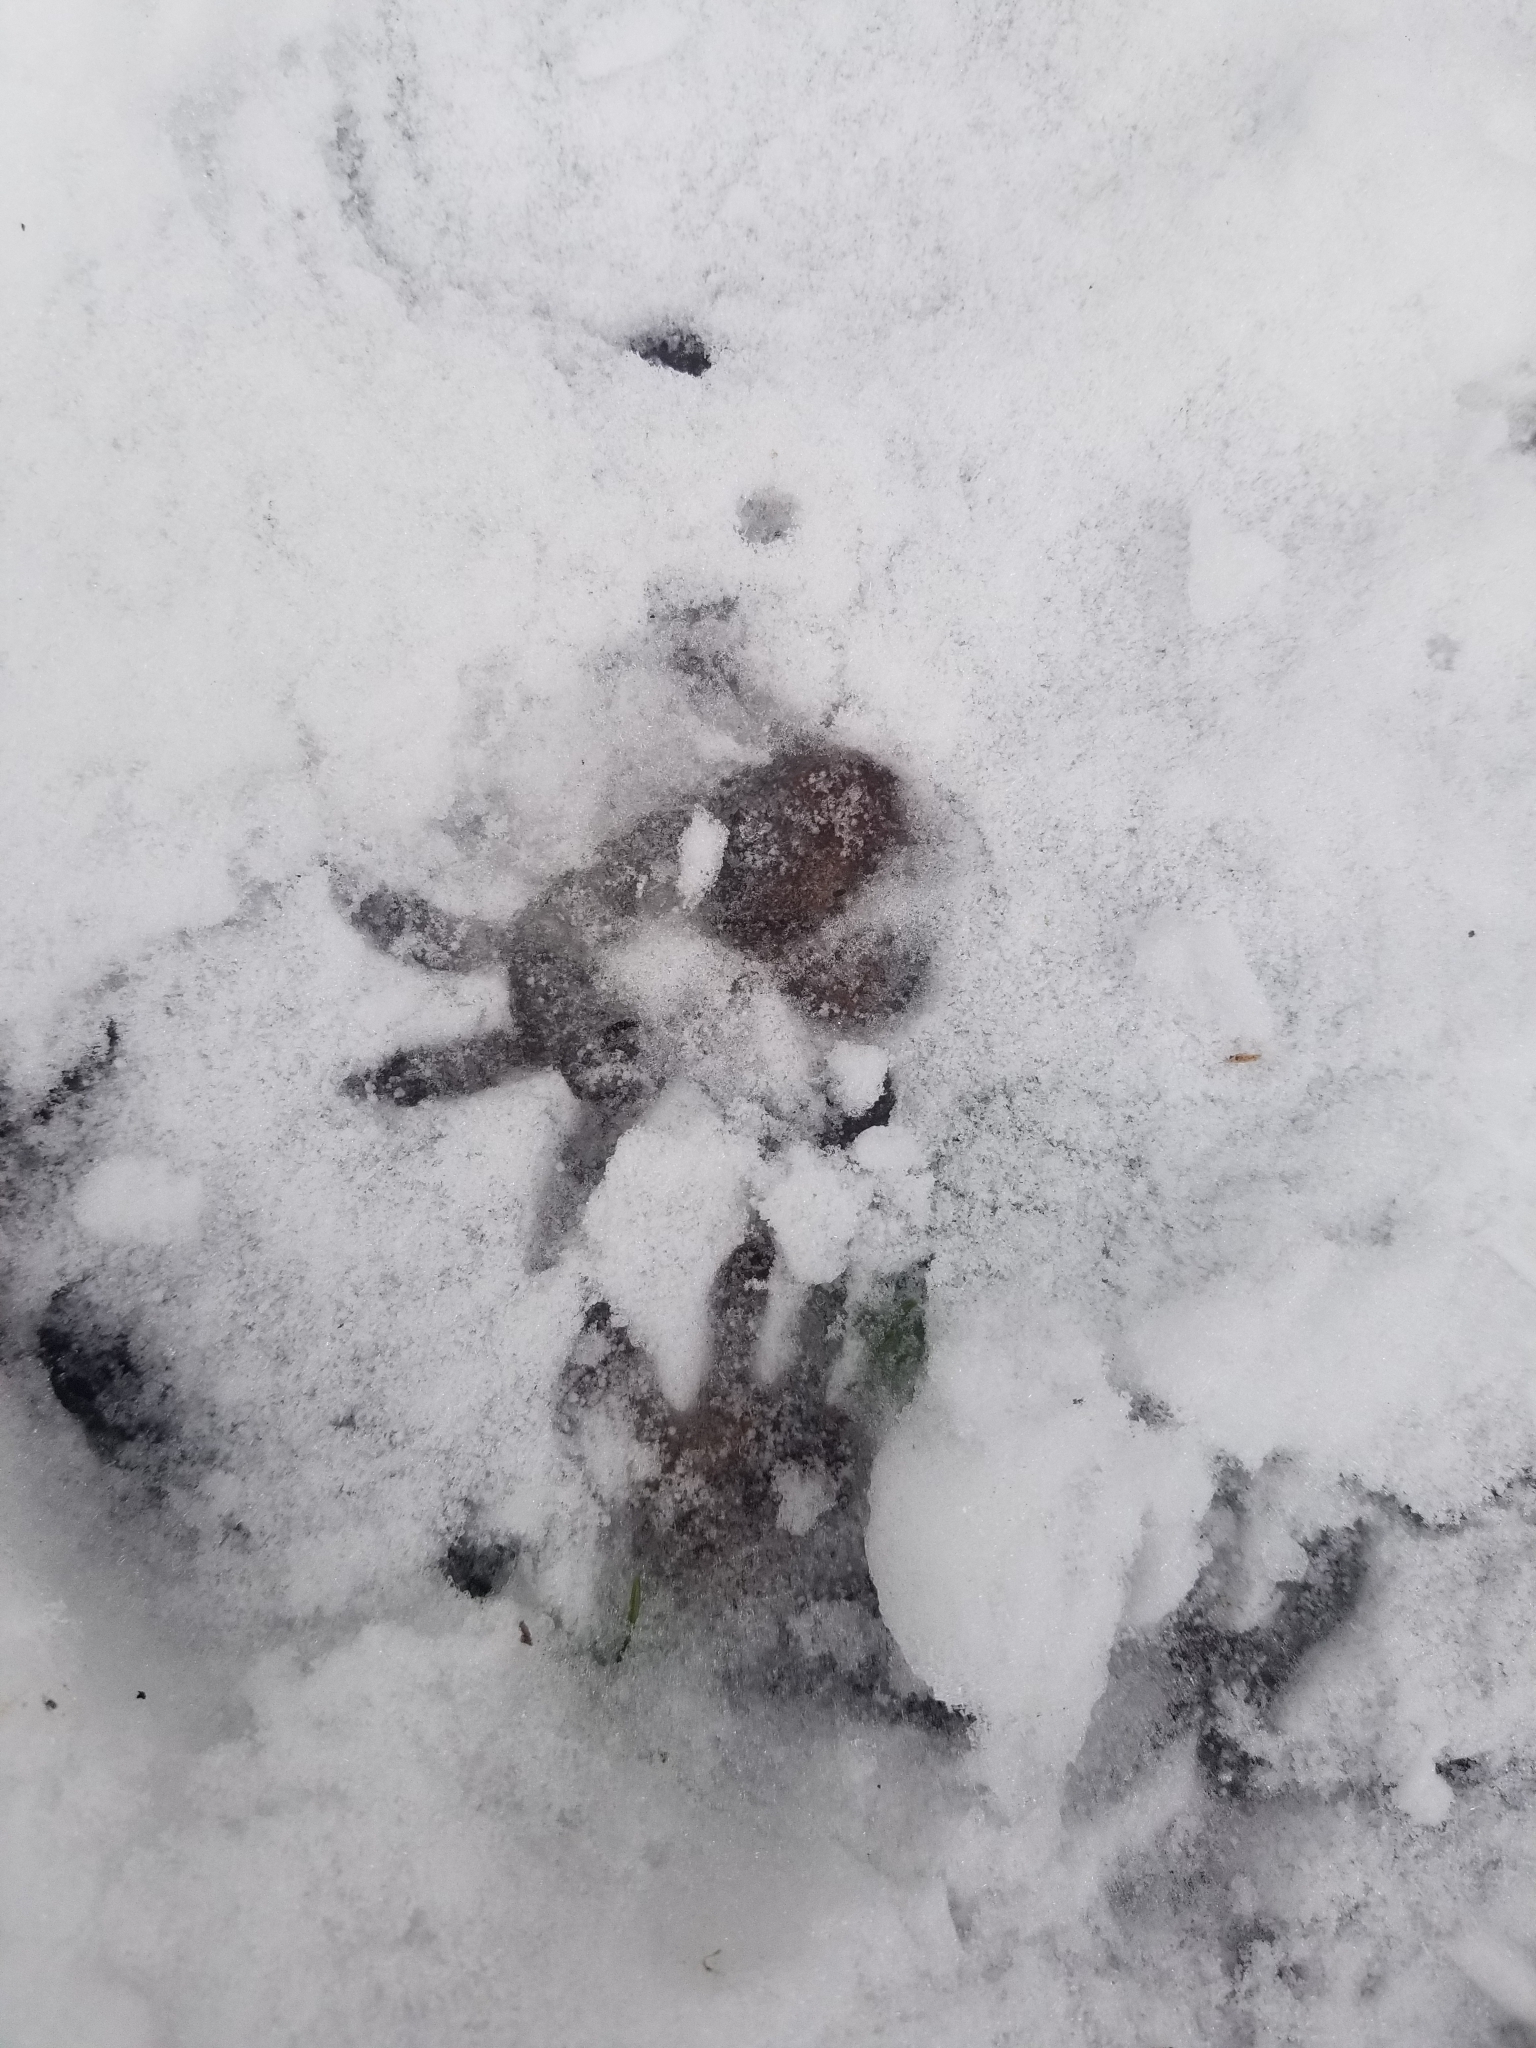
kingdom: Animalia
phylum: Chordata
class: Mammalia
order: Carnivora
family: Procyonidae
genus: Procyon
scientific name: Procyon lotor
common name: Raccoon
